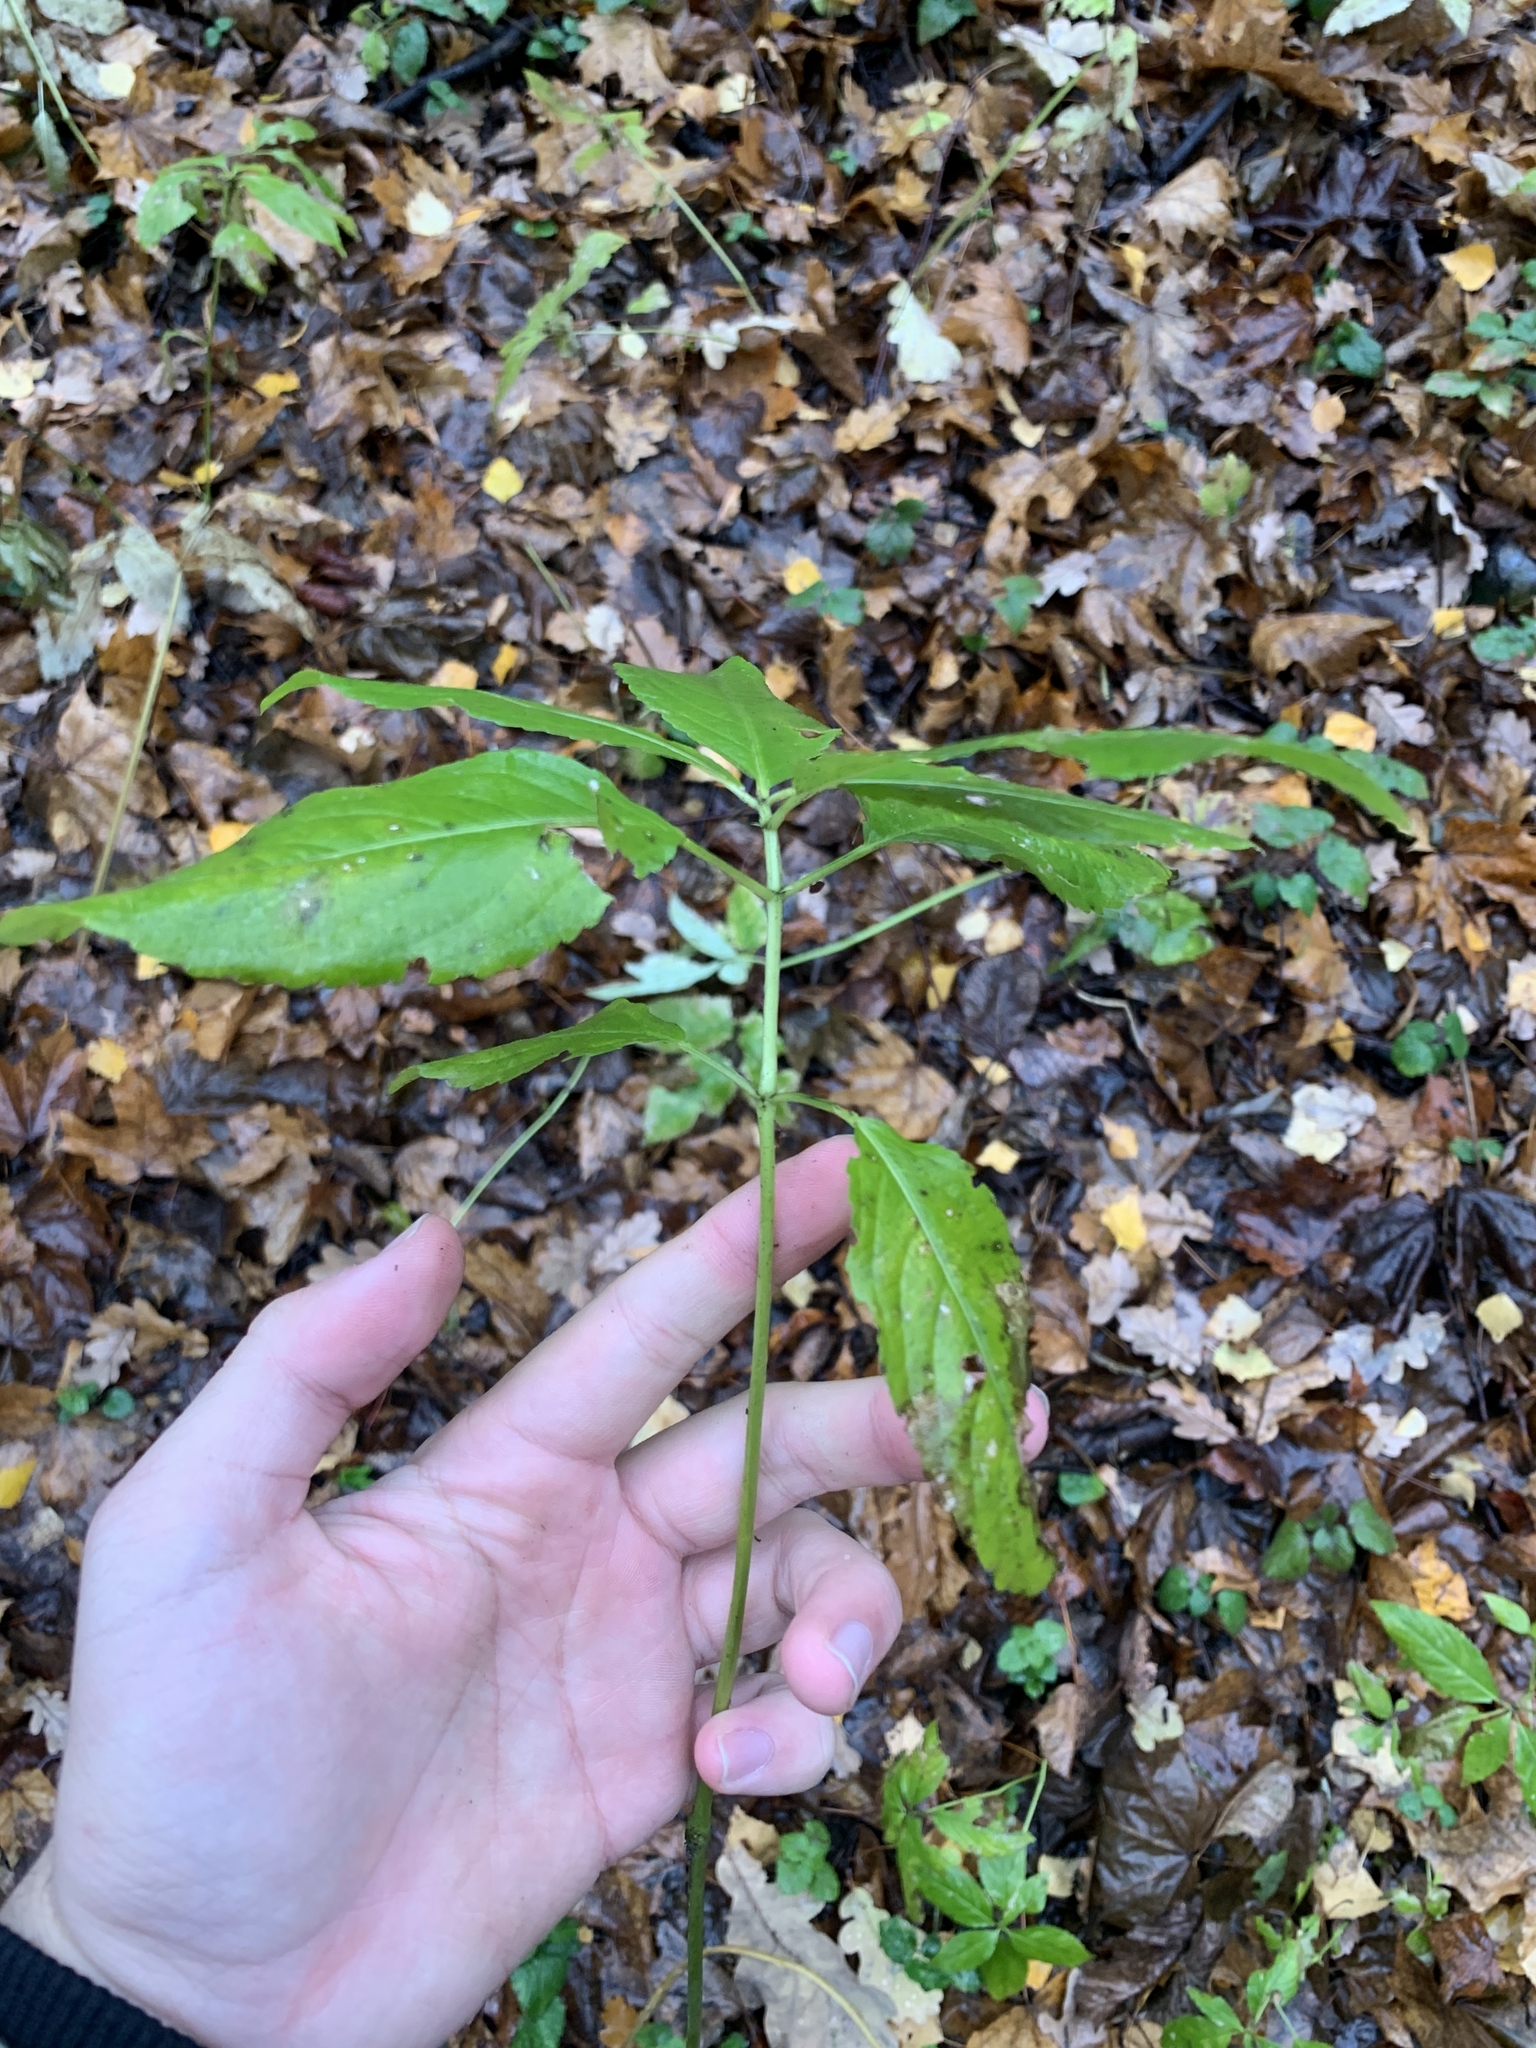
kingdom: Plantae
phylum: Tracheophyta
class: Magnoliopsida
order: Malpighiales
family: Euphorbiaceae
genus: Mercurialis
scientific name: Mercurialis perennis
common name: Dog mercury
